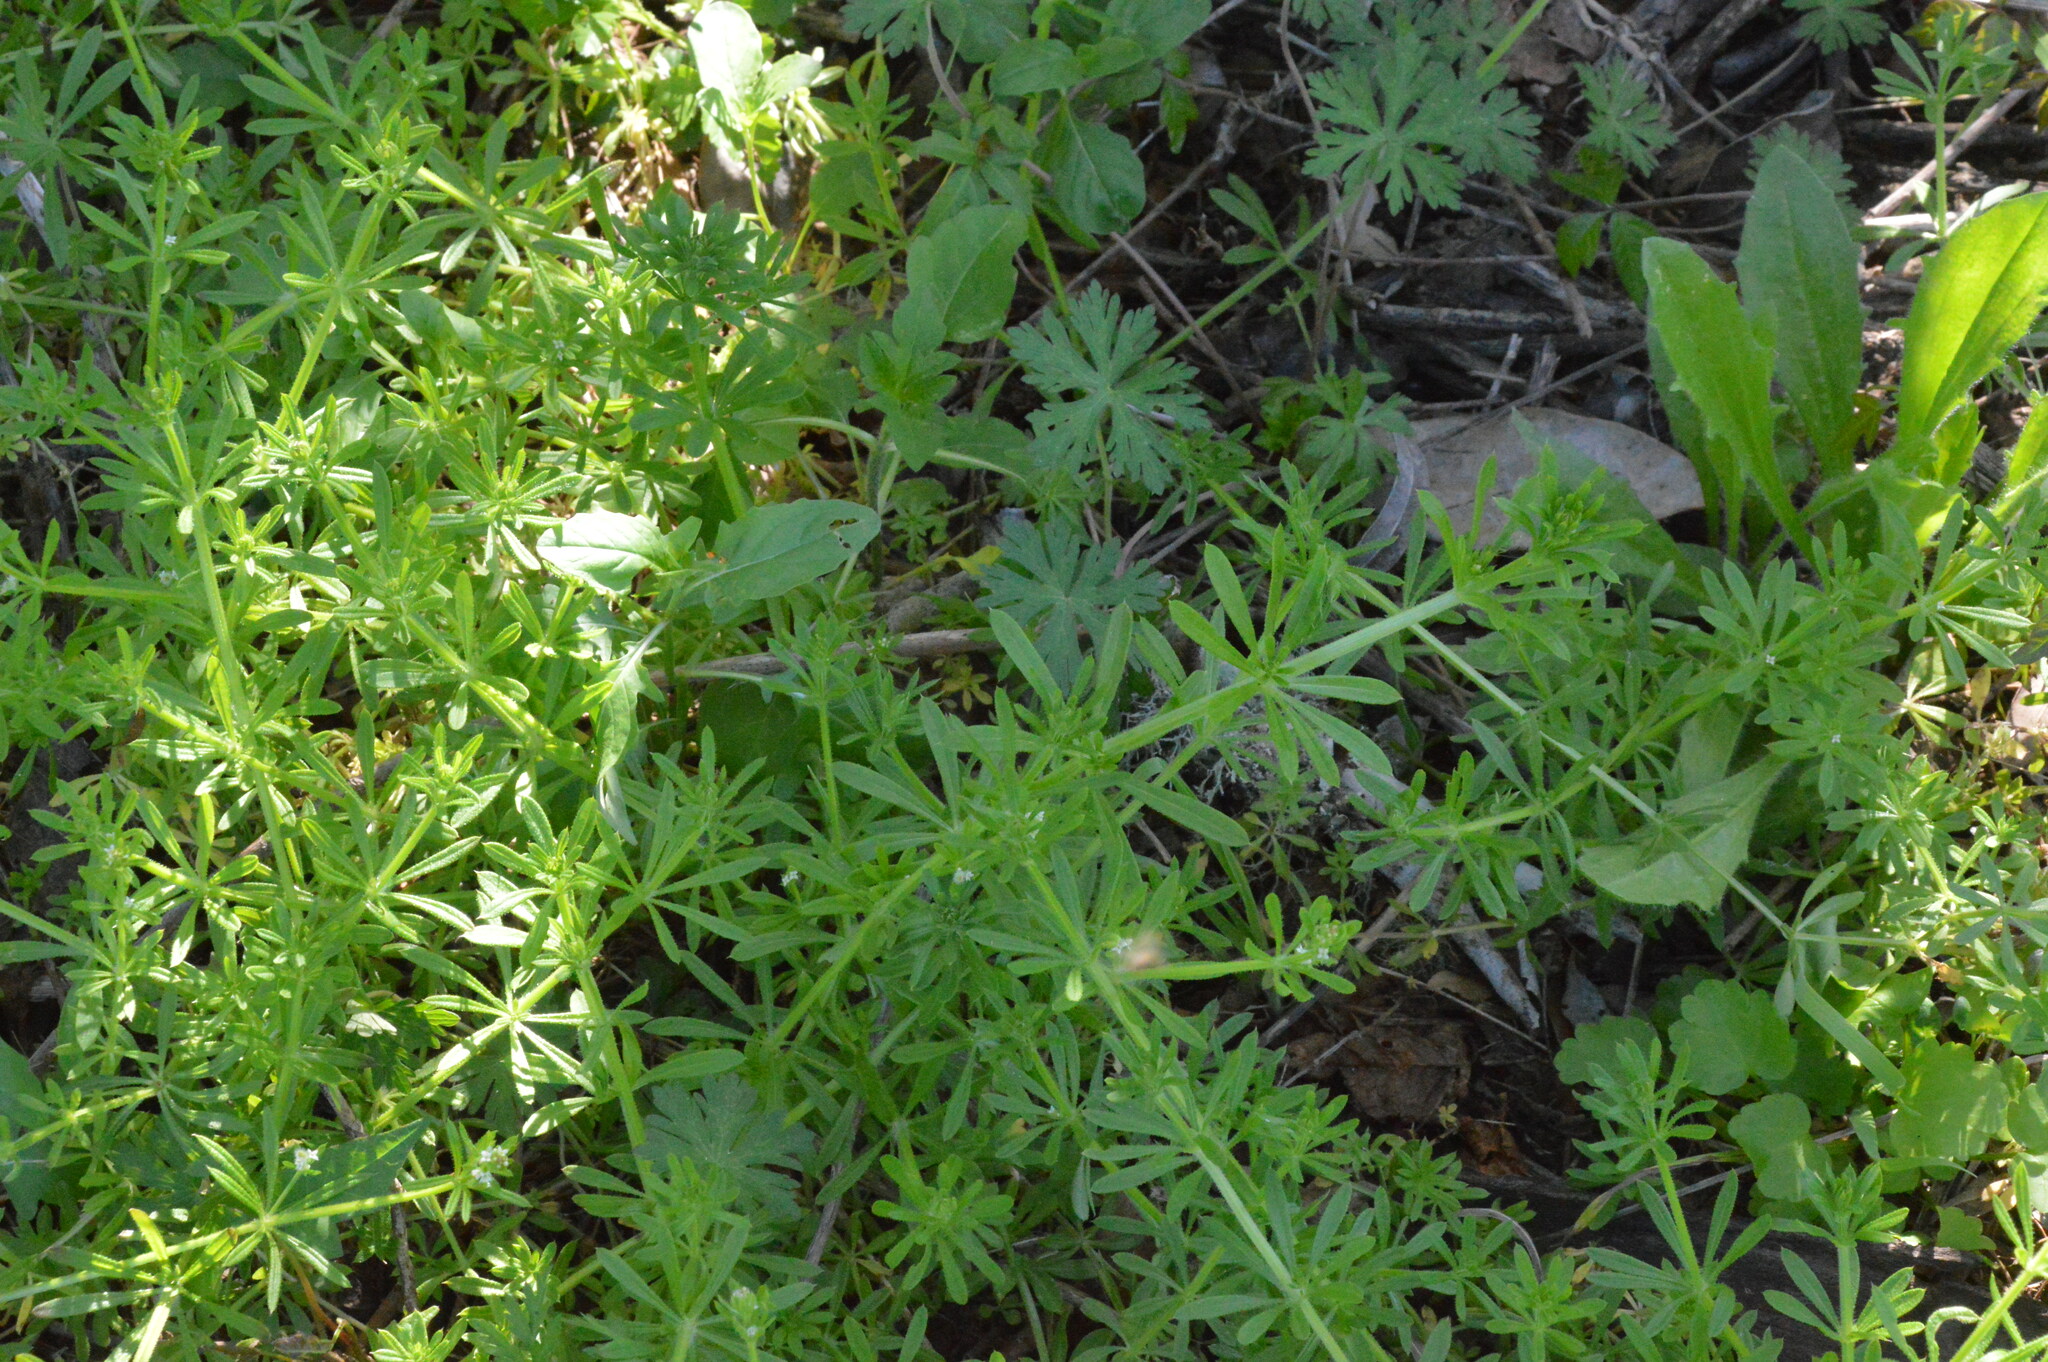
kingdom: Plantae
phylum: Tracheophyta
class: Magnoliopsida
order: Gentianales
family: Rubiaceae
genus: Galium
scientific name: Galium aparine
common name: Cleavers
